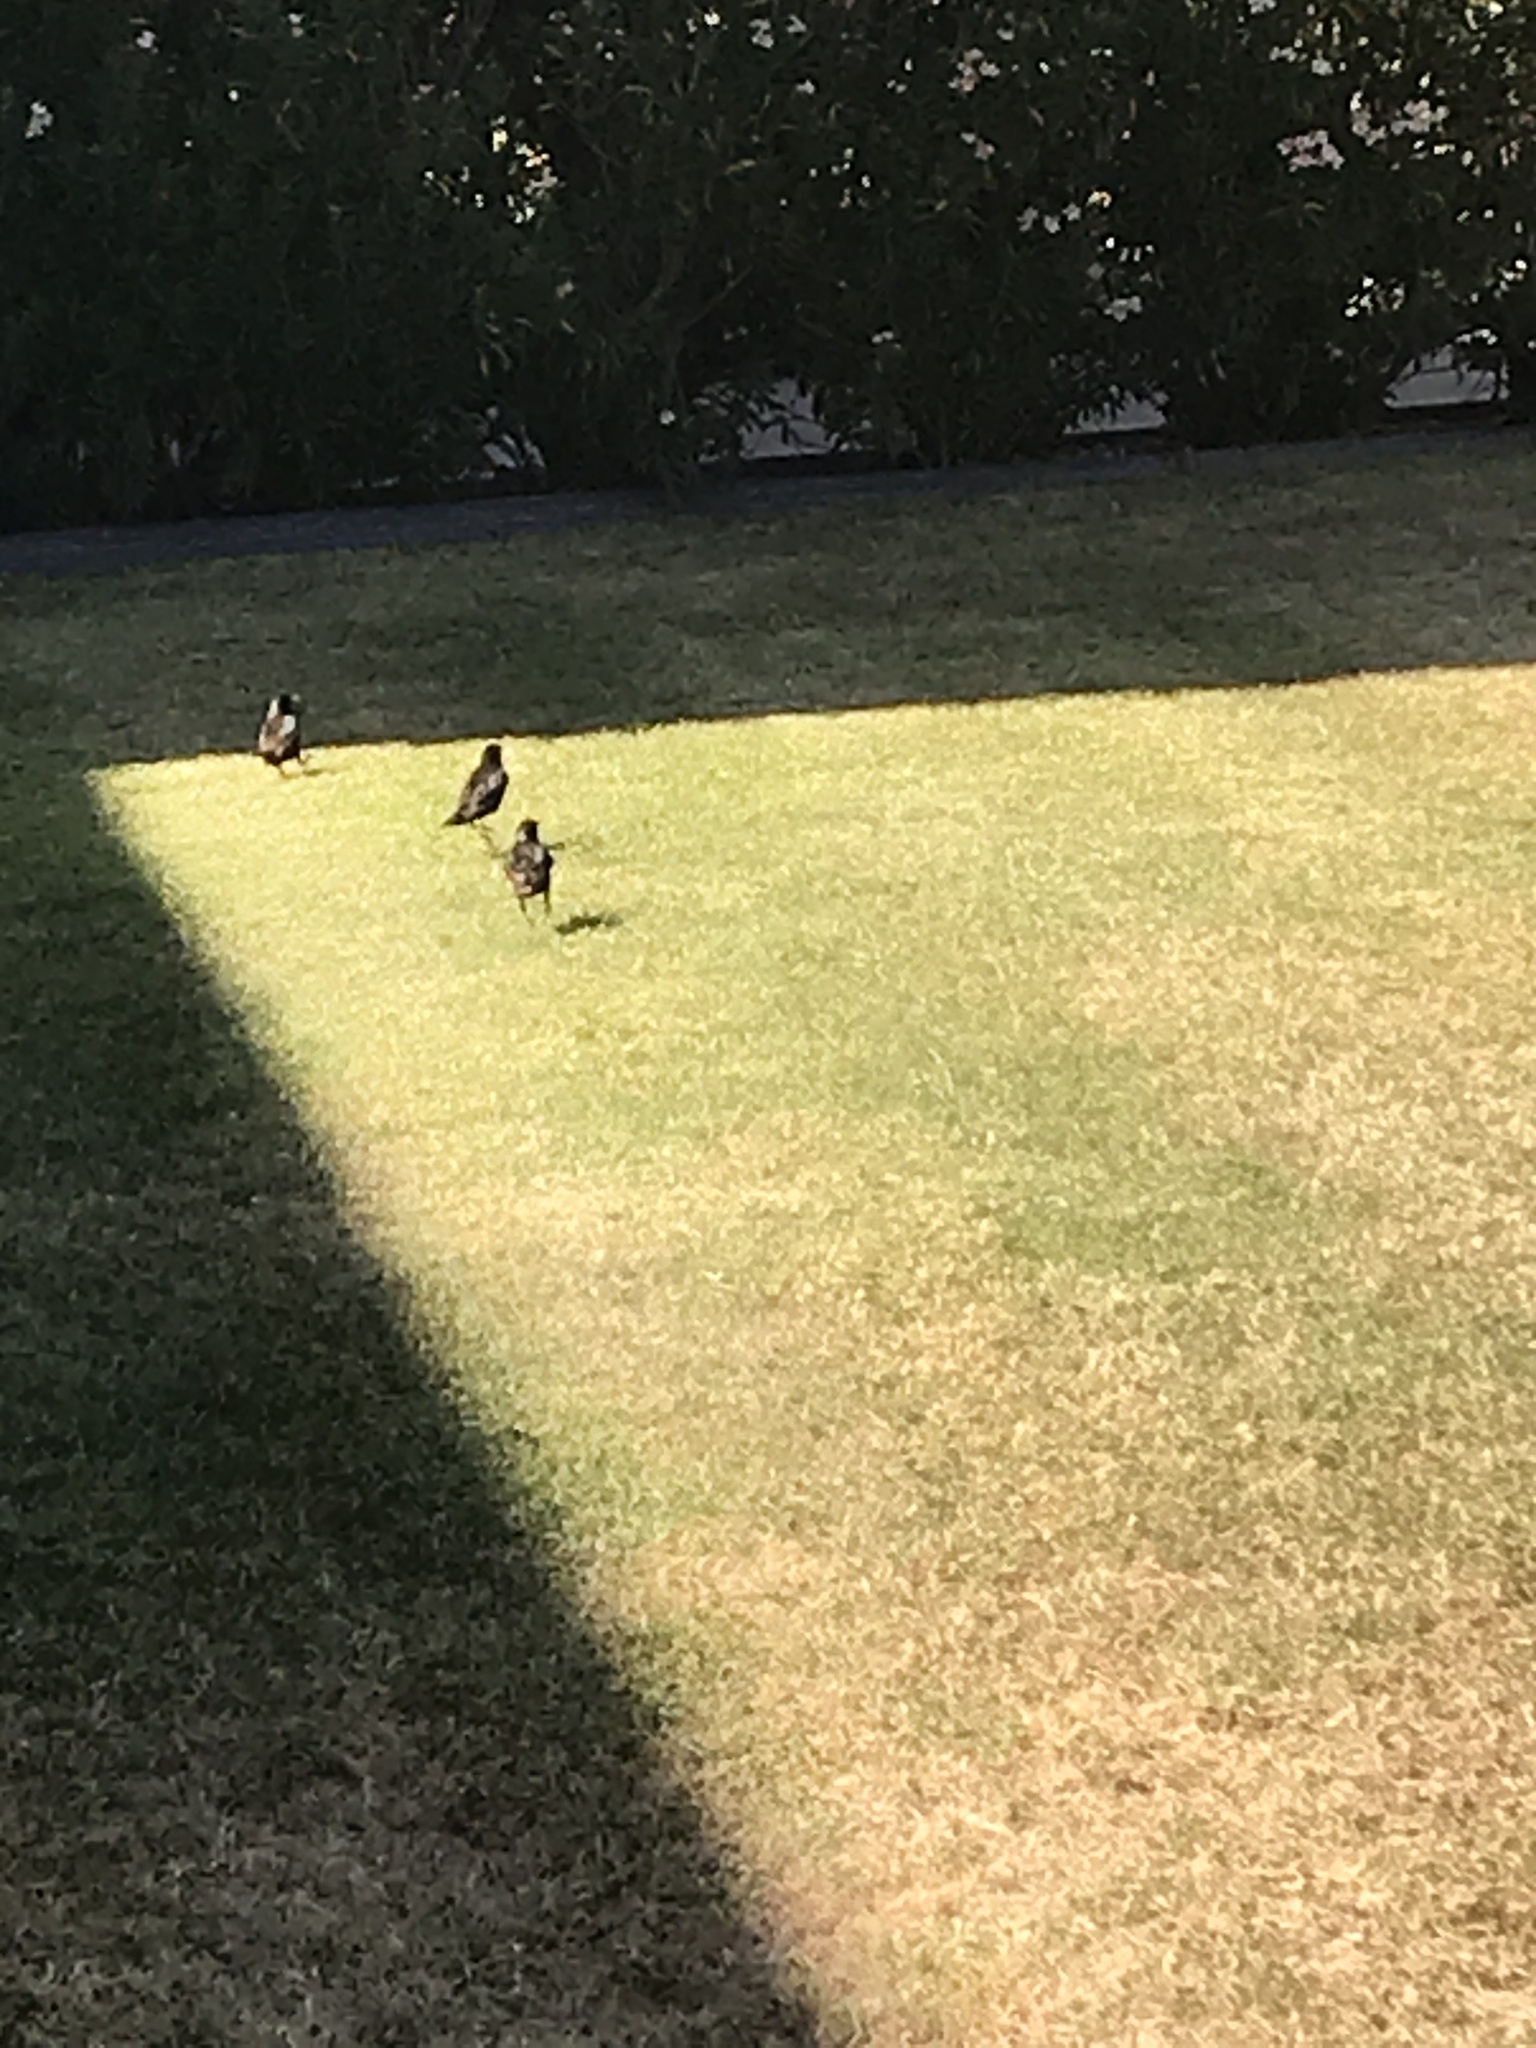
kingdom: Animalia
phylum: Chordata
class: Aves
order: Passeriformes
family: Sturnidae
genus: Sturnus
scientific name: Sturnus vulgaris
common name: Common starling
